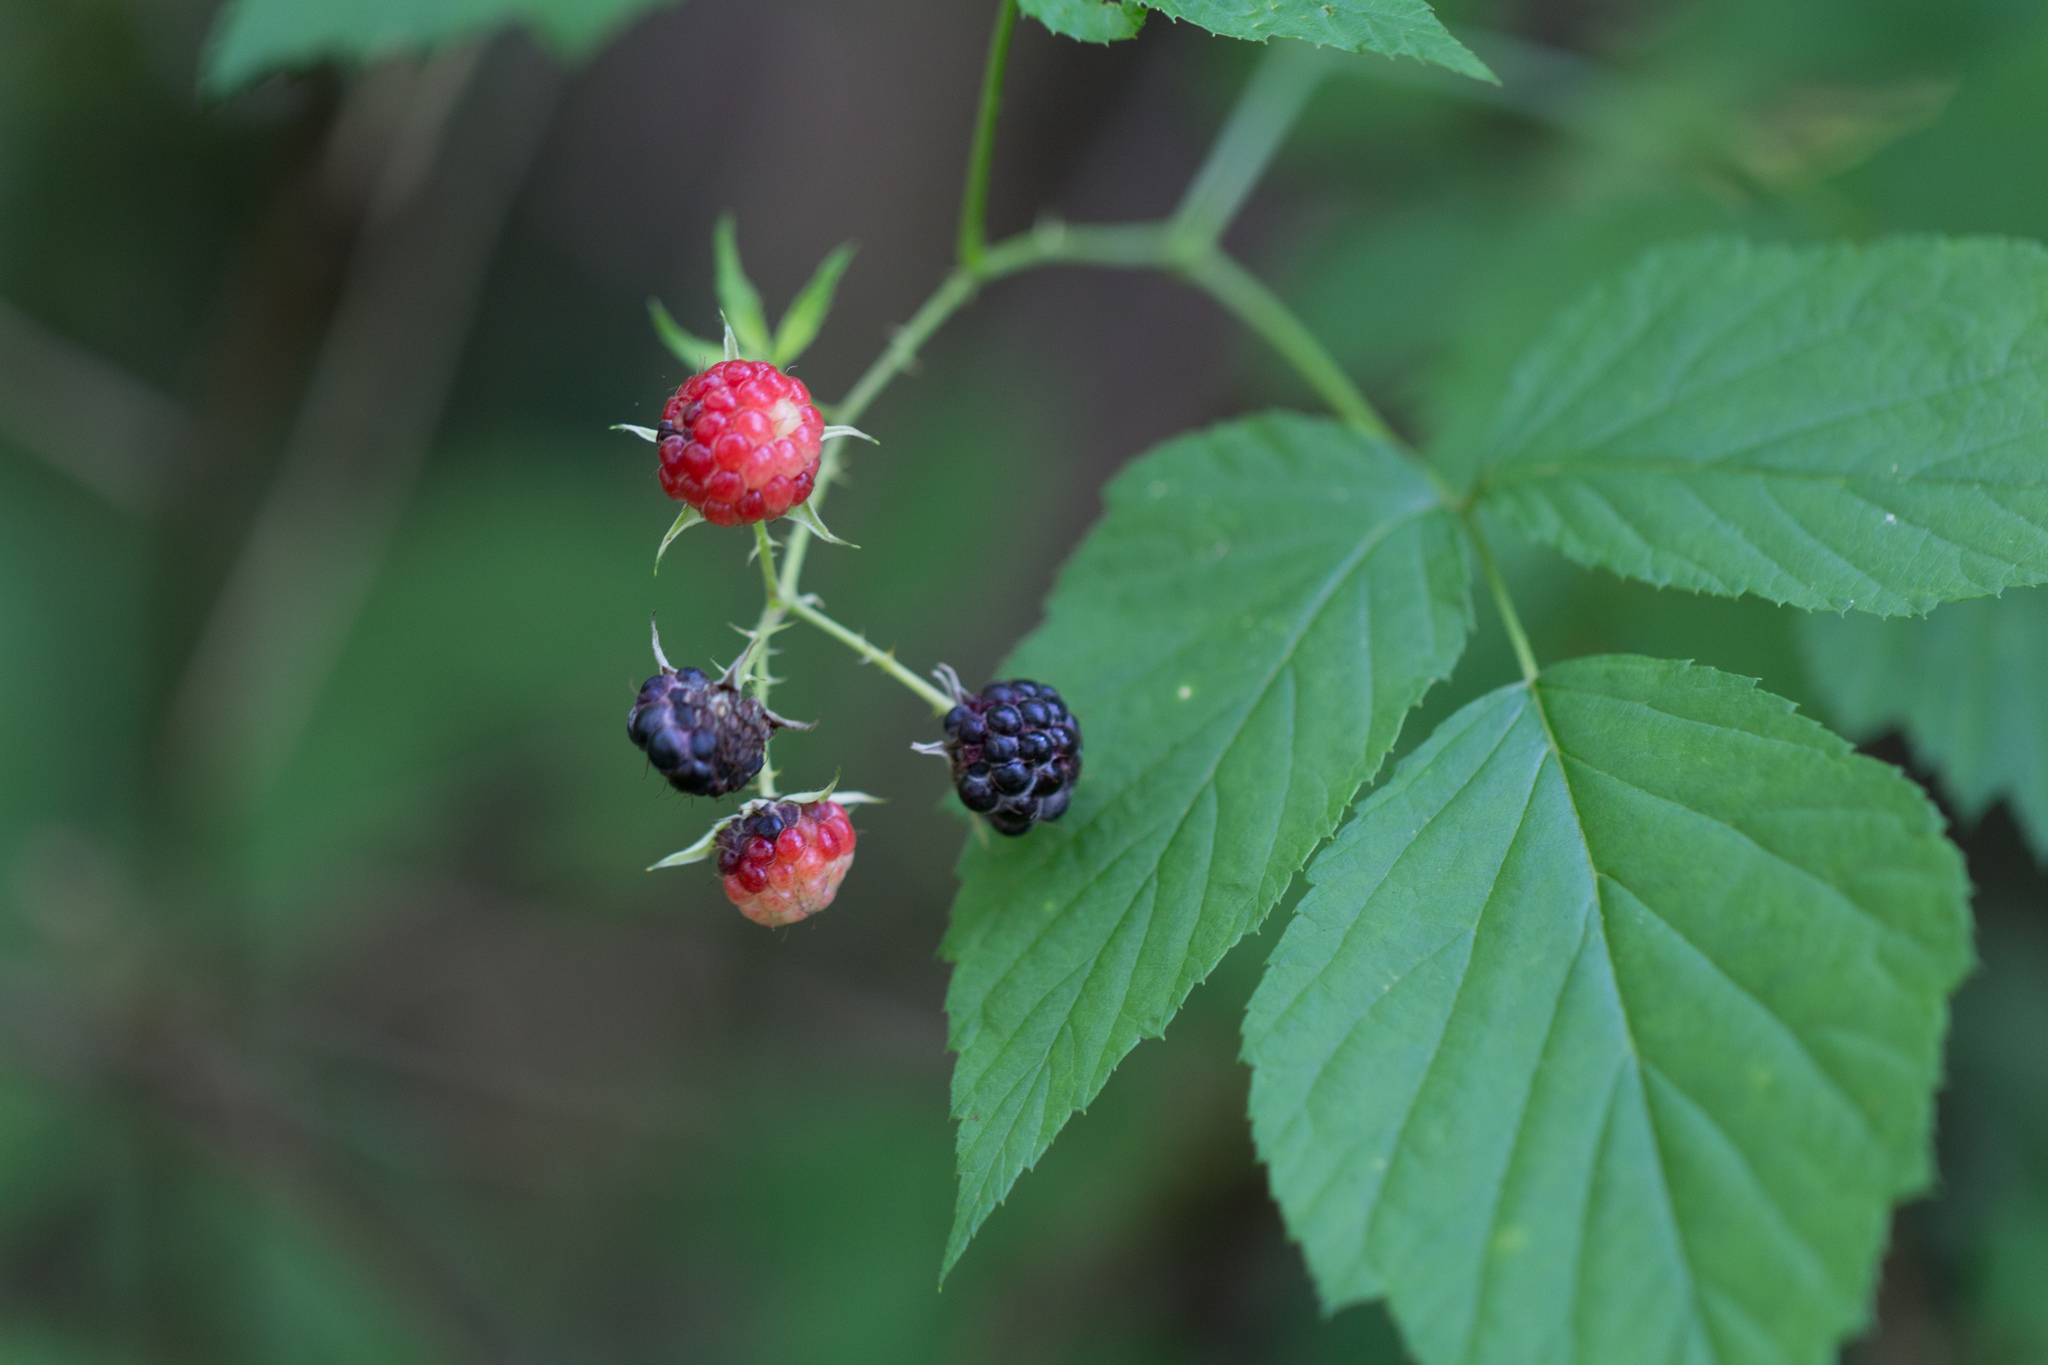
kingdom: Plantae
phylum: Tracheophyta
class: Magnoliopsida
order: Rosales
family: Rosaceae
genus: Rubus
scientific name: Rubus occidentalis
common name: Black raspberry
